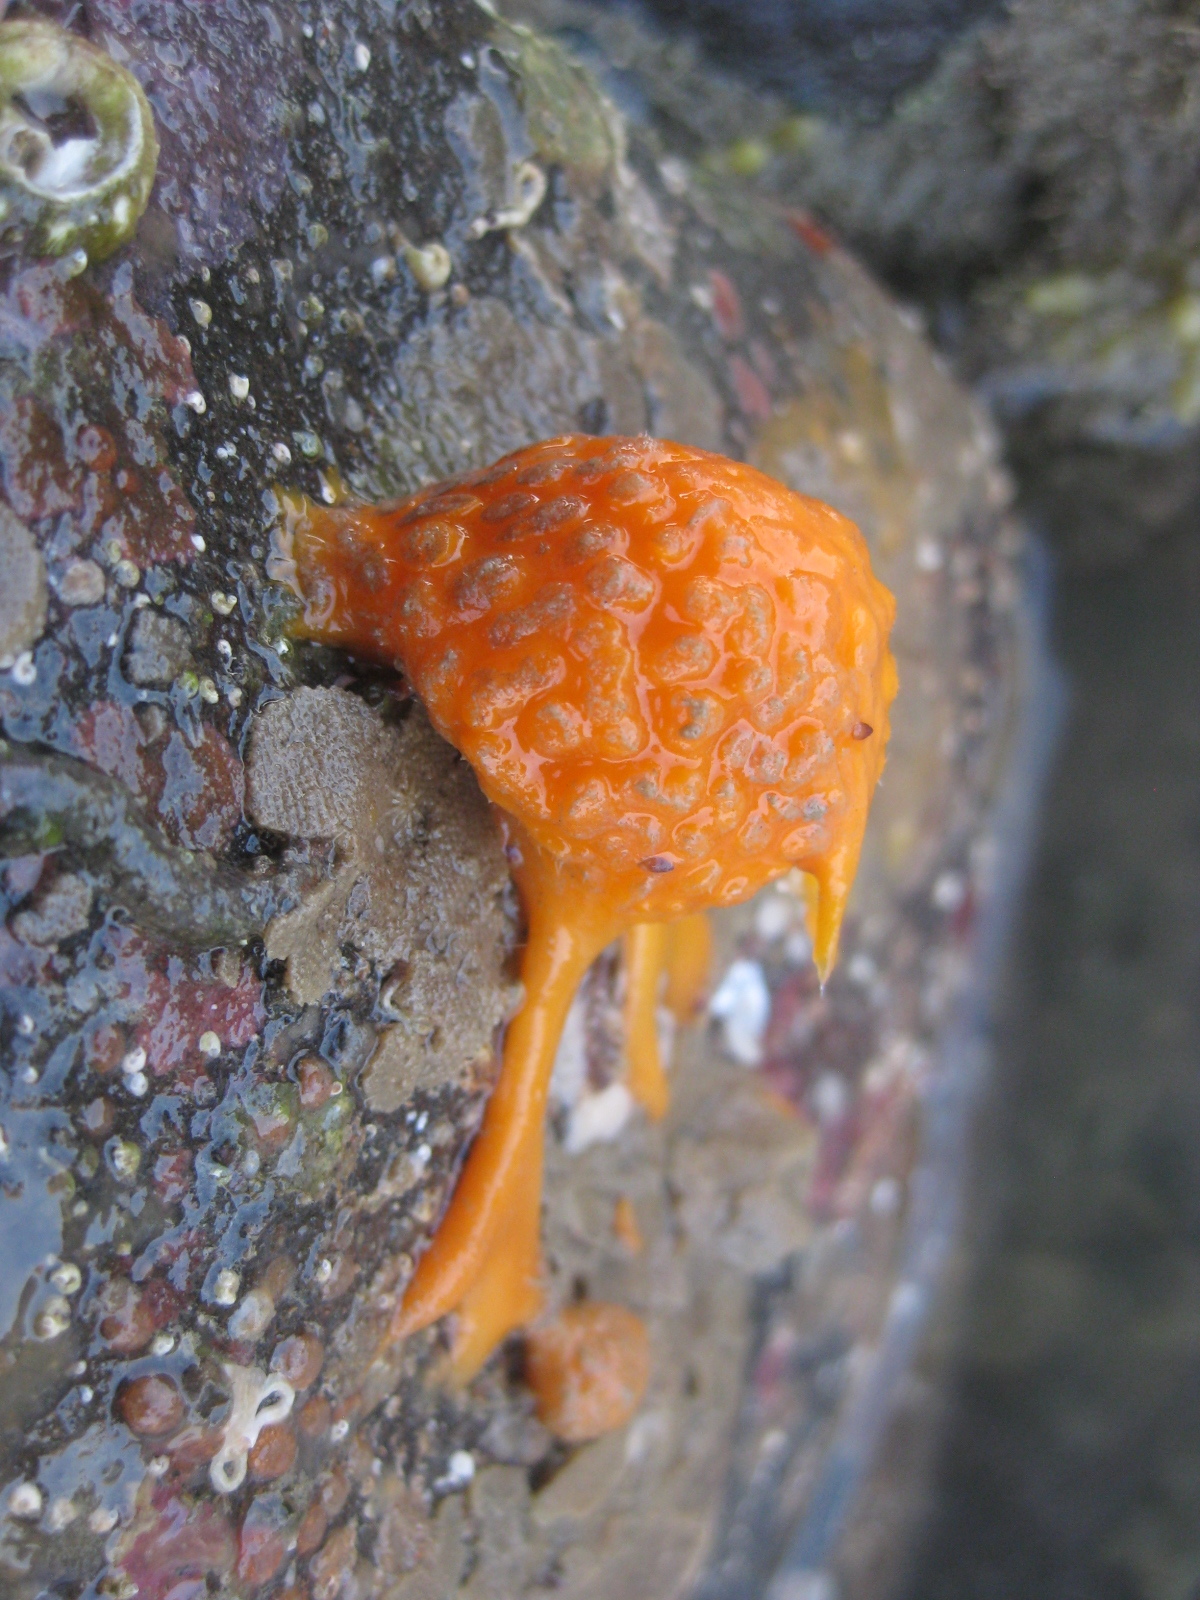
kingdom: Animalia
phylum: Porifera
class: Demospongiae
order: Tethyida
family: Tethyidae
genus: Tethya
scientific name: Tethya burtoni
